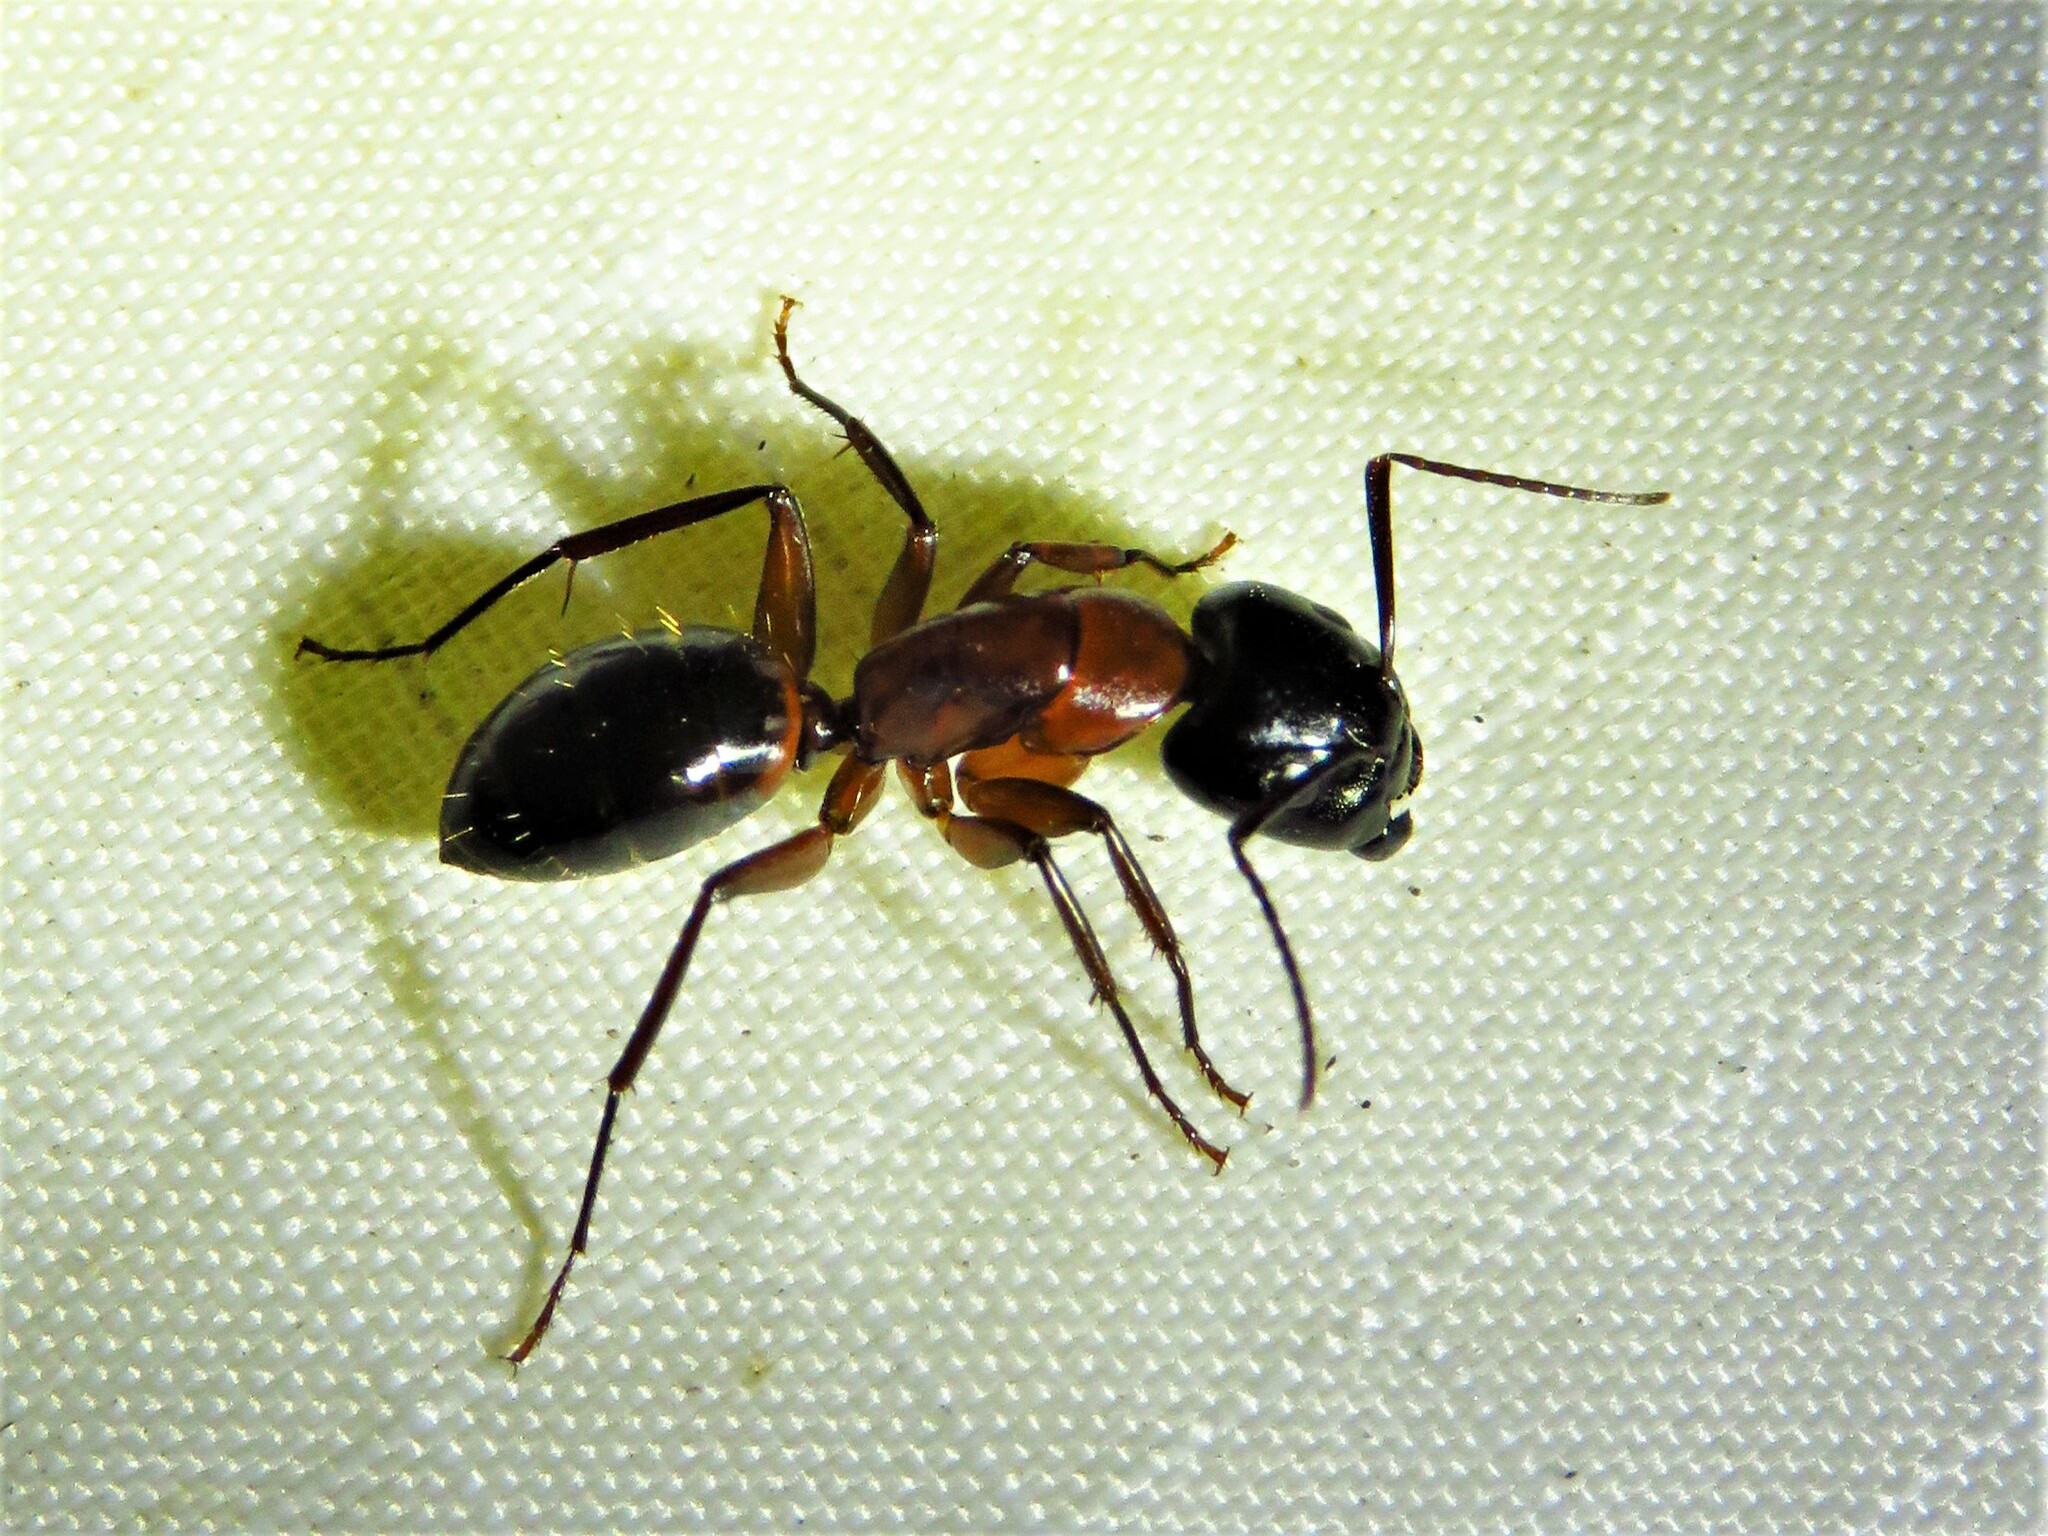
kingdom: Animalia
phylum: Arthropoda
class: Insecta
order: Hymenoptera
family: Formicidae
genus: Camponotus
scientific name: Camponotus texanus
